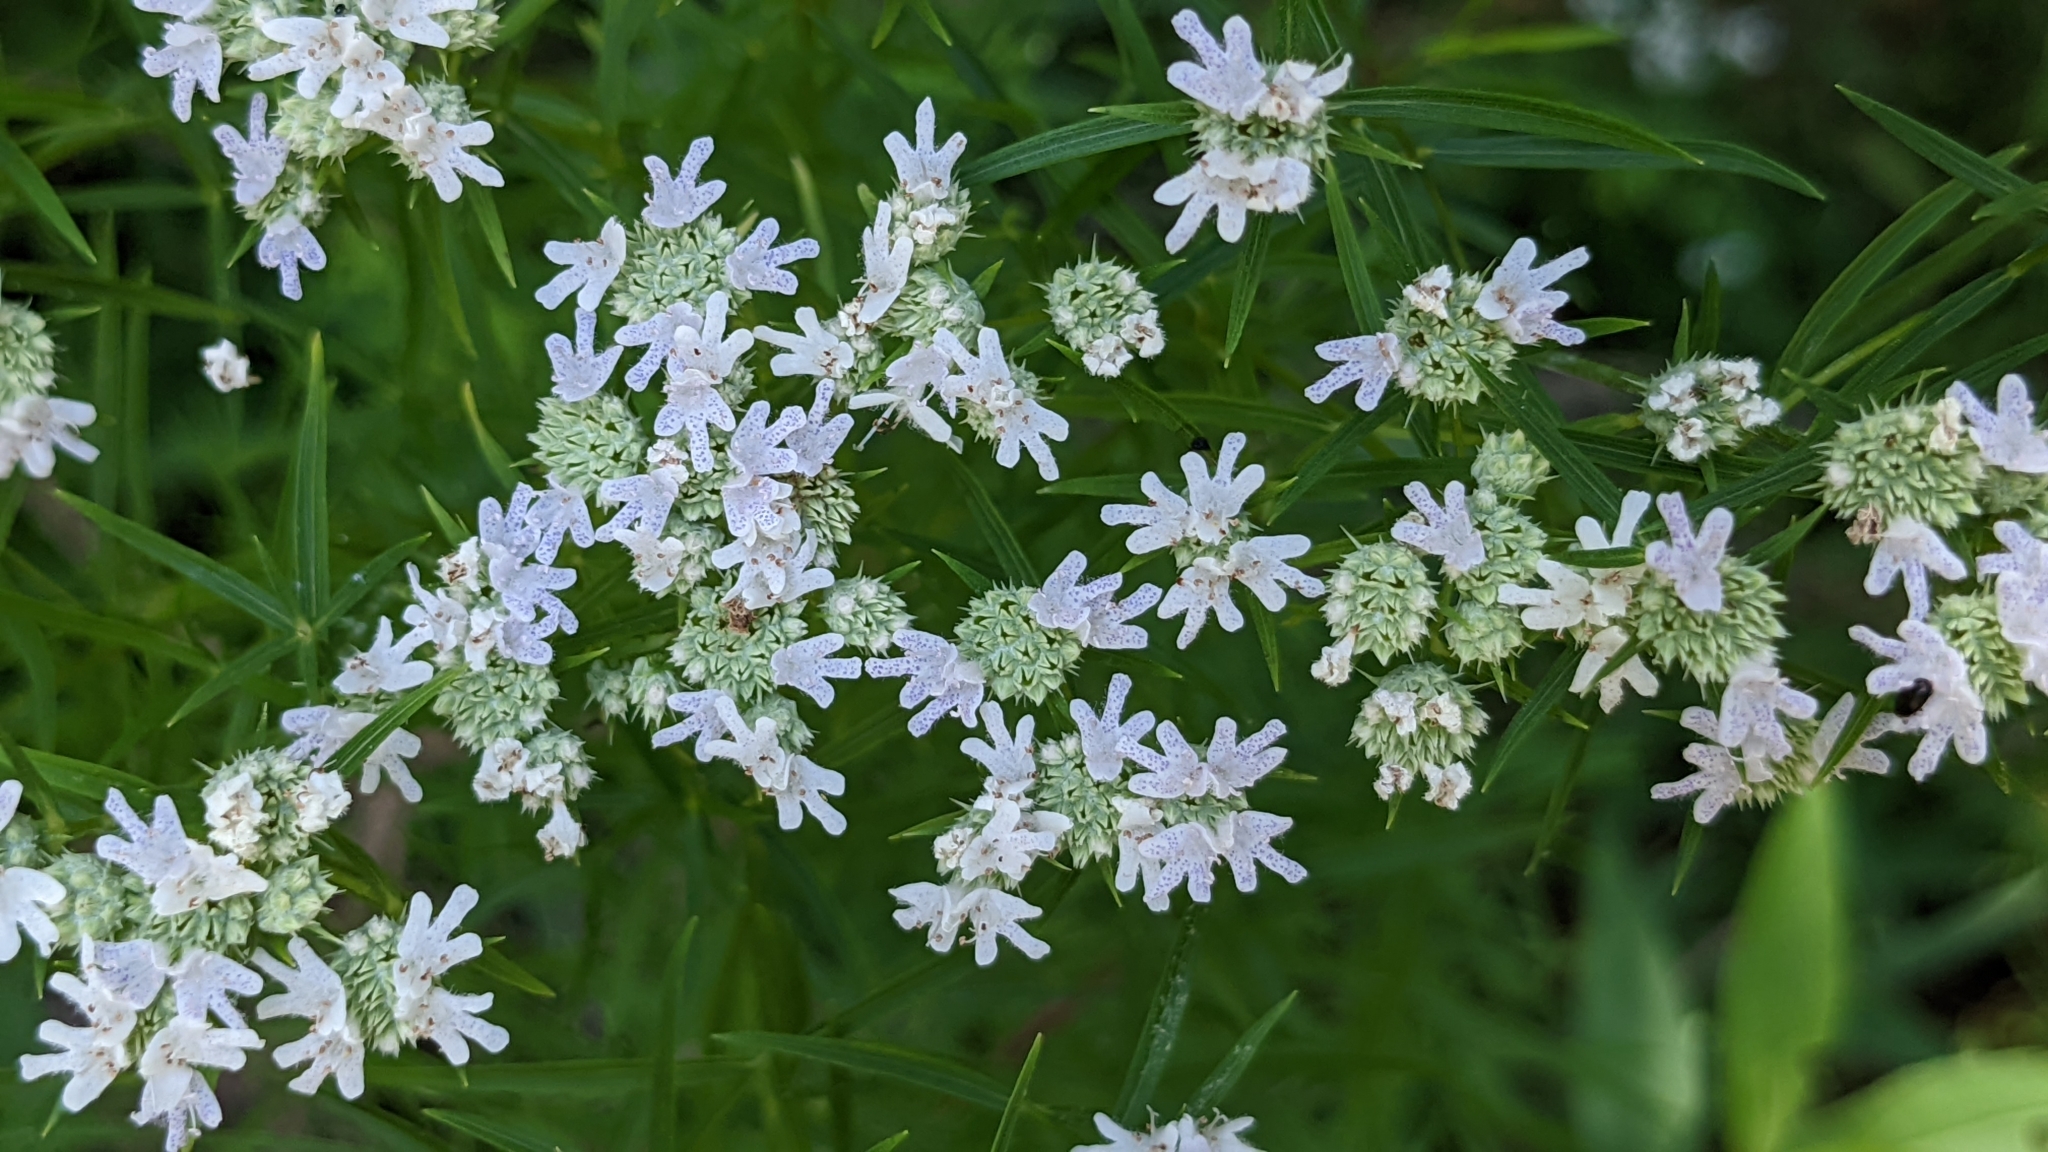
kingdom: Plantae
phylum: Tracheophyta
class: Magnoliopsida
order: Lamiales
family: Lamiaceae
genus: Pycnanthemum
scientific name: Pycnanthemum tenuifolium
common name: Narrow-leaf mountain-mint
